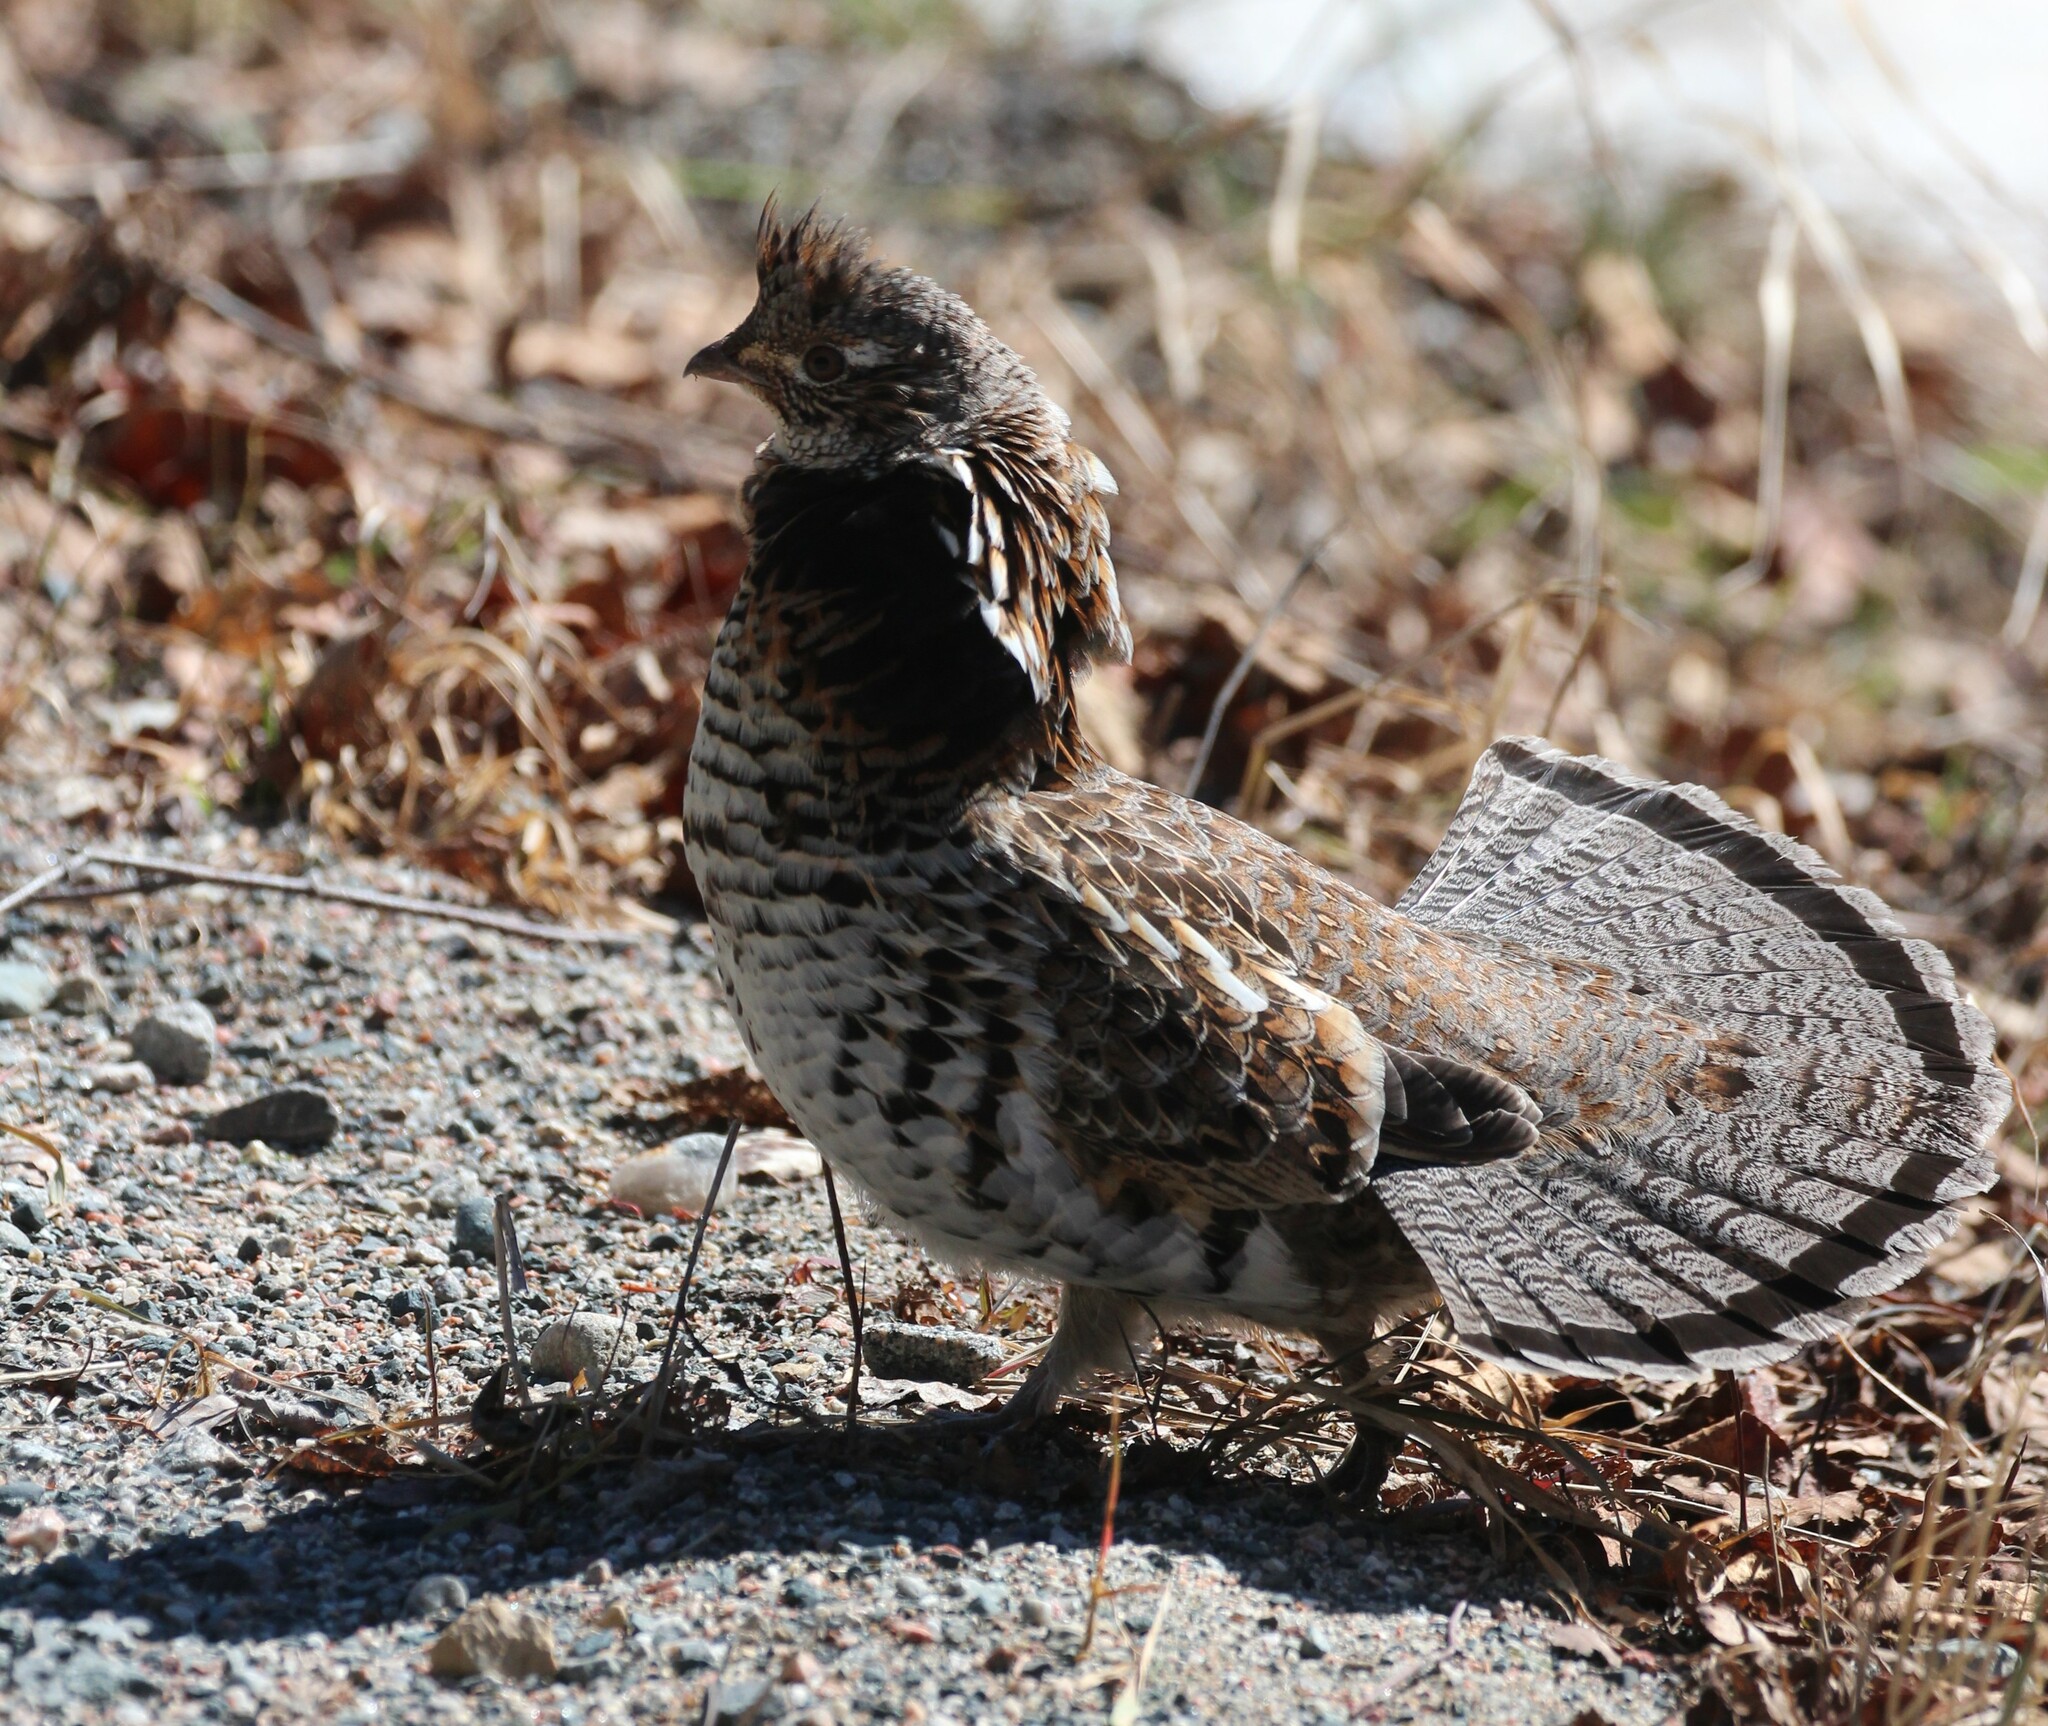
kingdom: Animalia
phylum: Chordata
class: Aves
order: Galliformes
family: Phasianidae
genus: Bonasa
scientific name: Bonasa umbellus
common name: Ruffed grouse
